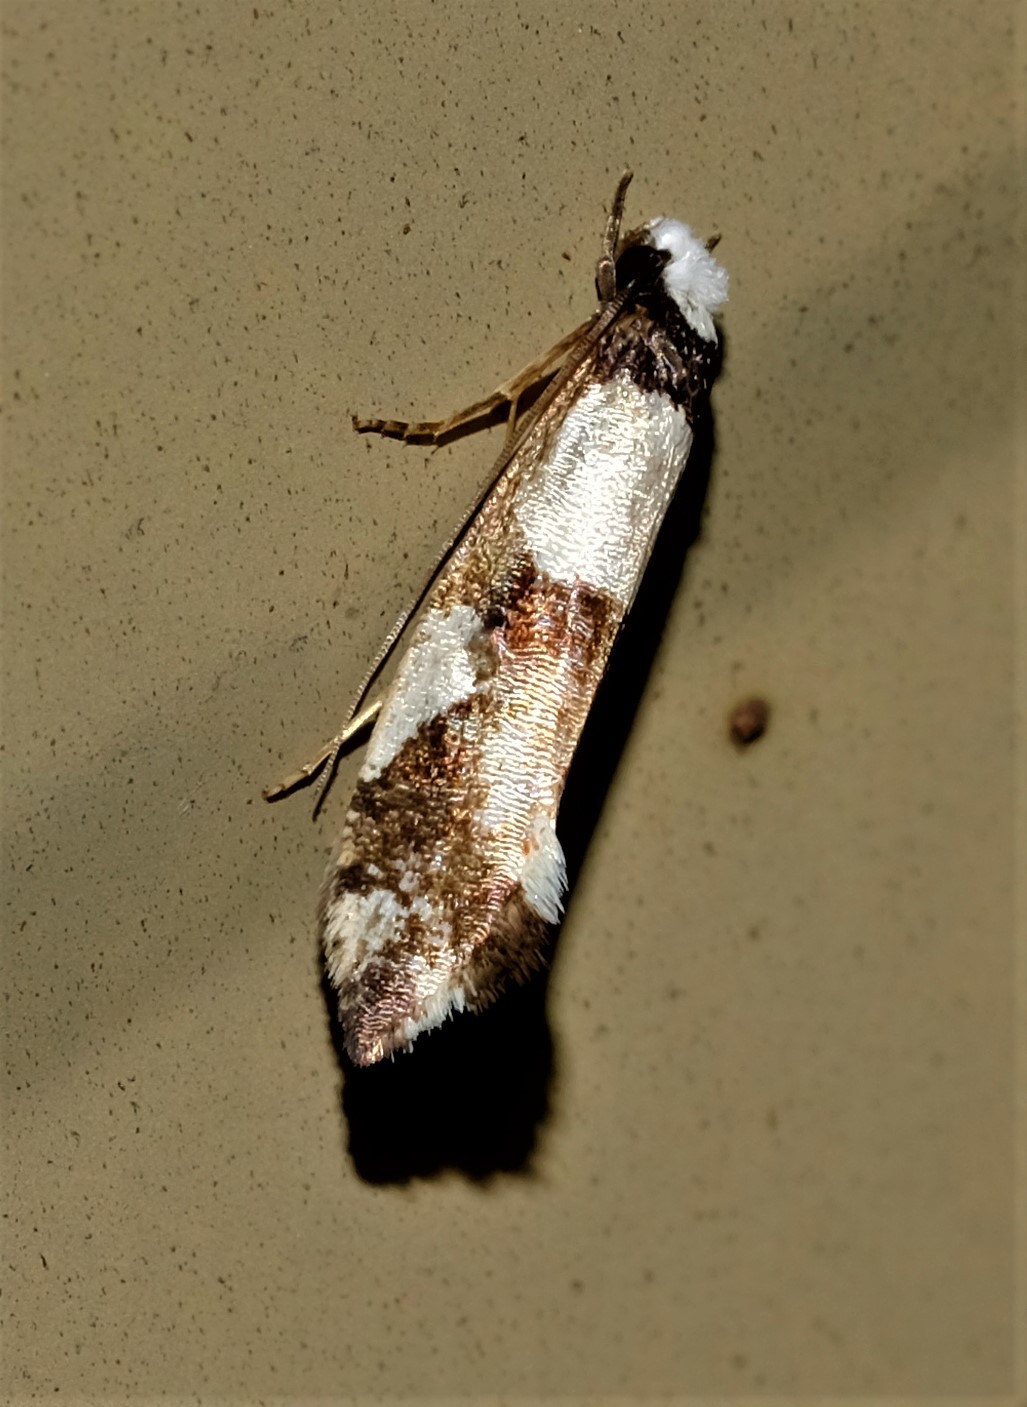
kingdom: Animalia
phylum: Arthropoda
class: Insecta
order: Lepidoptera
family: Tineidae
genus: Monopis
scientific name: Monopis icterogastra
